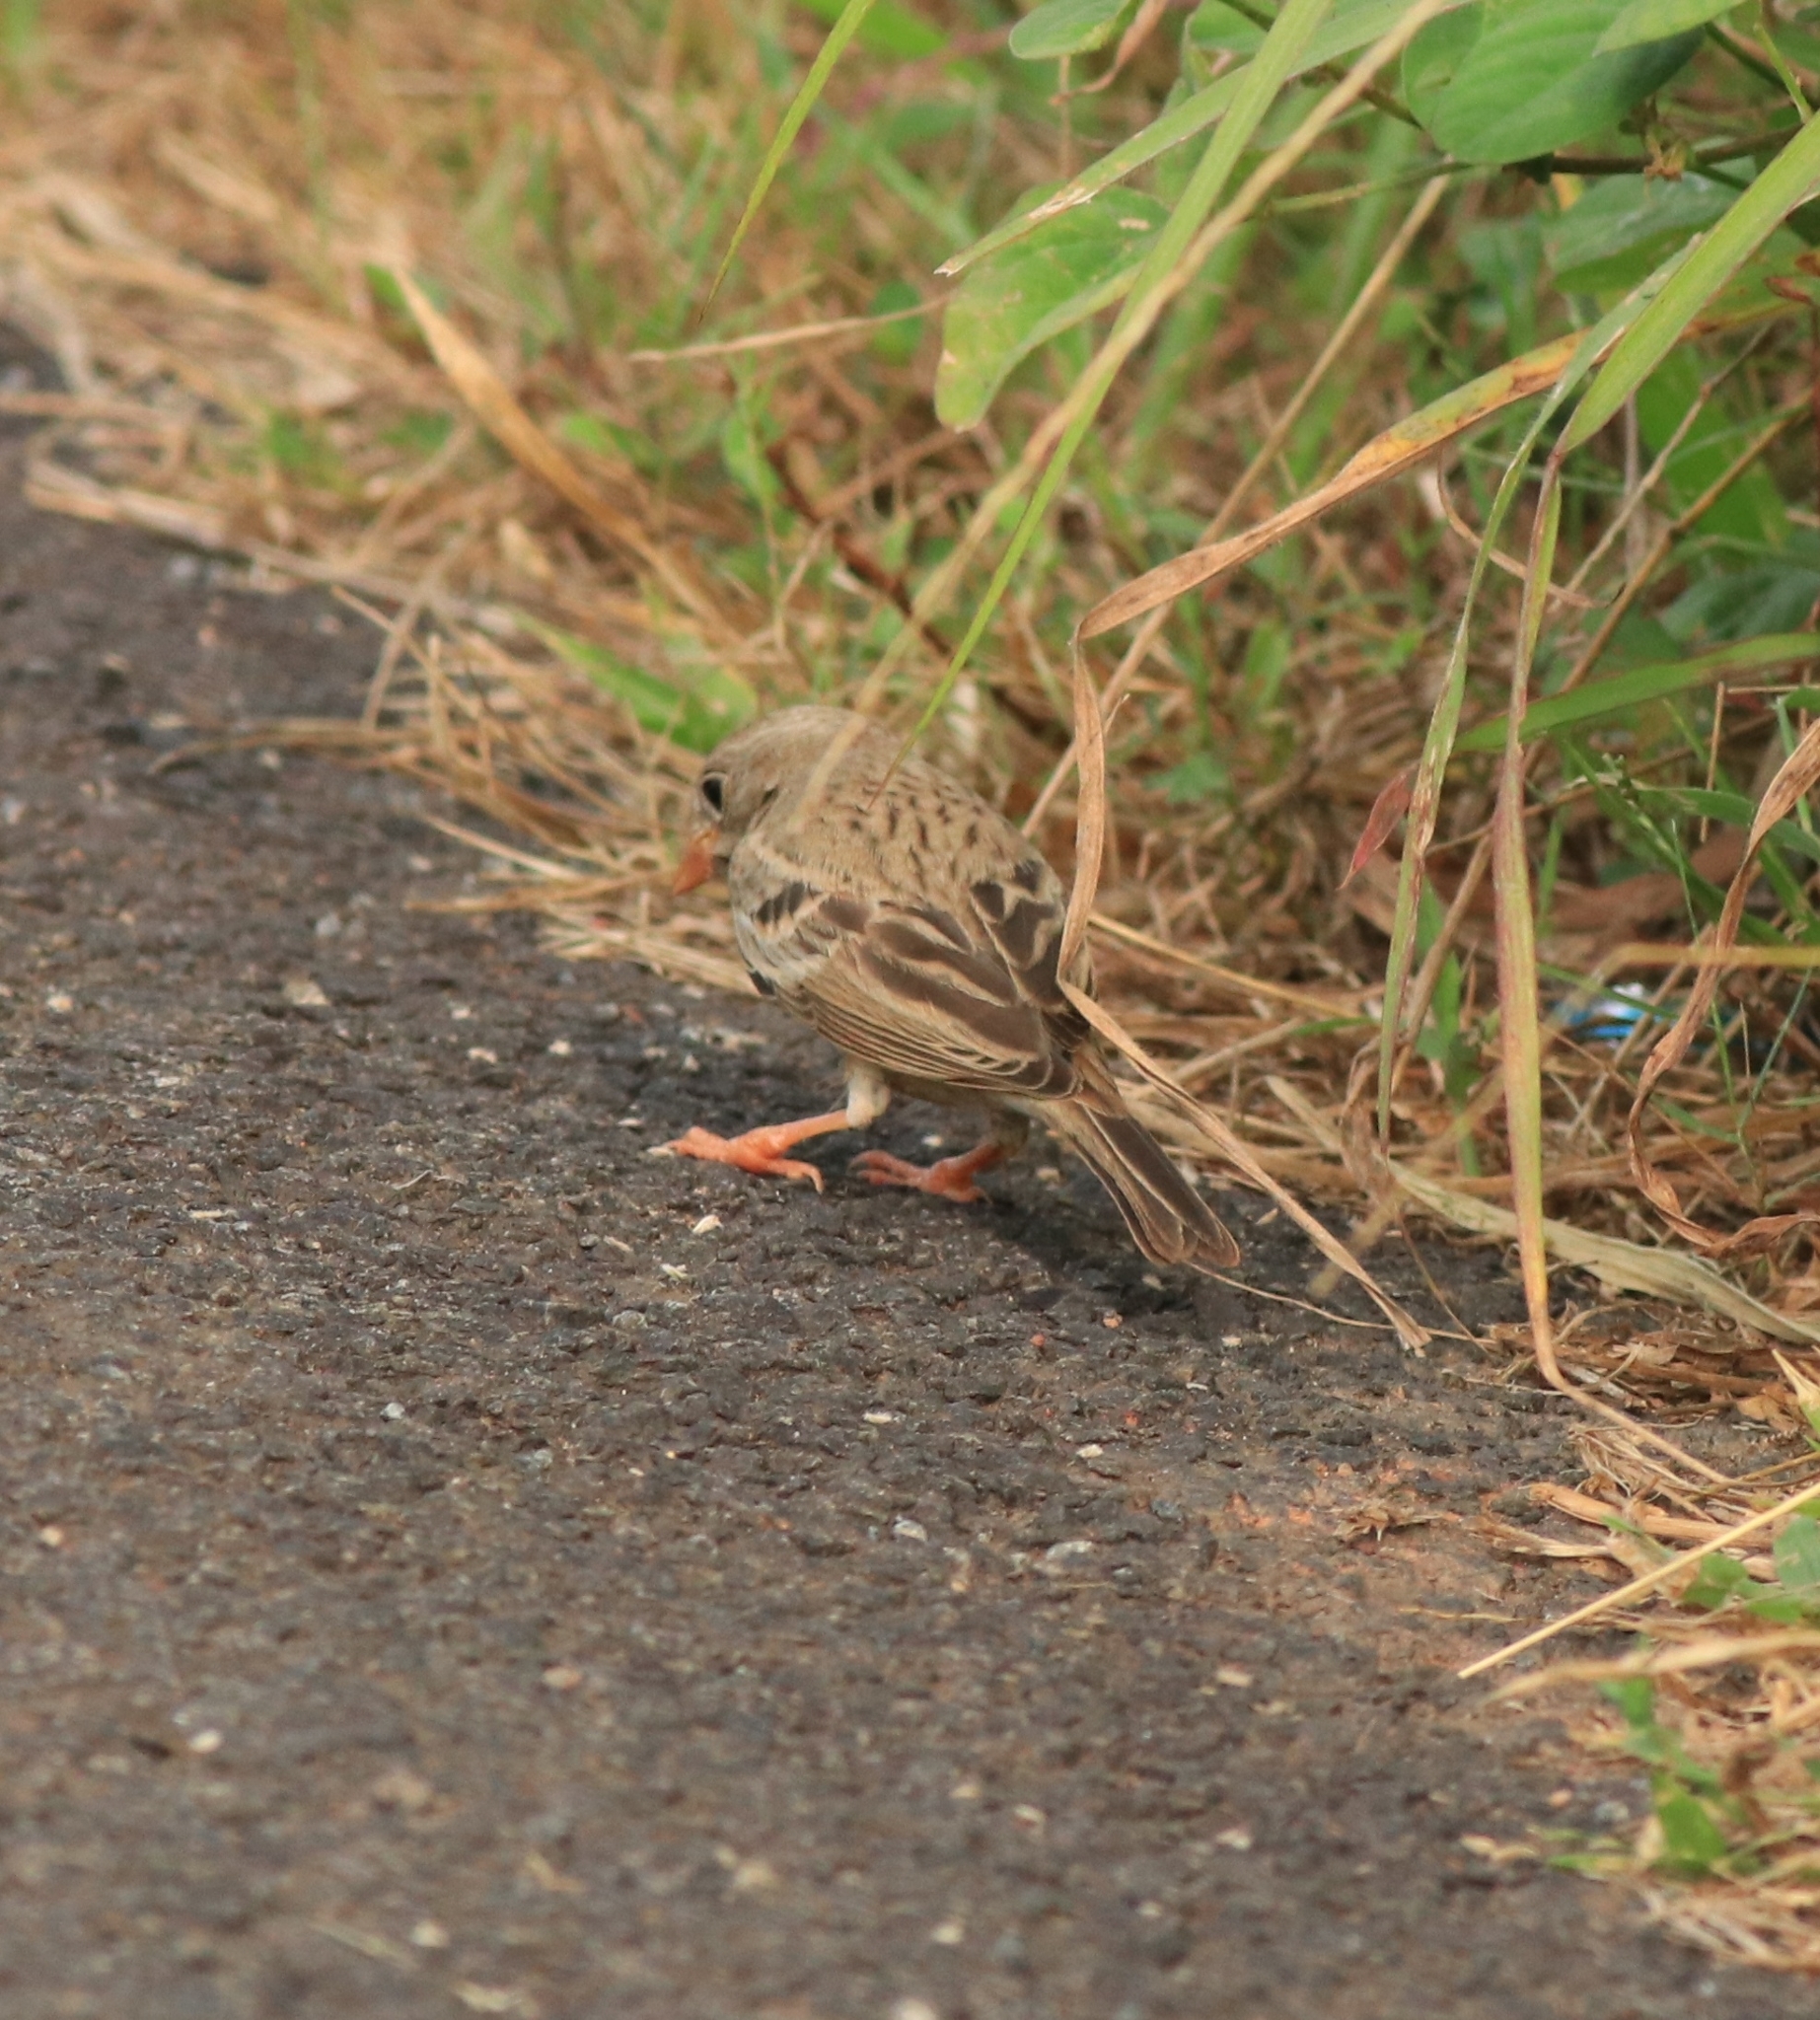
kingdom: Animalia
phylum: Chordata
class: Aves
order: Passeriformes
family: Emberizidae
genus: Emberiza
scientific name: Emberiza buchanani
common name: Grey-necked bunting
